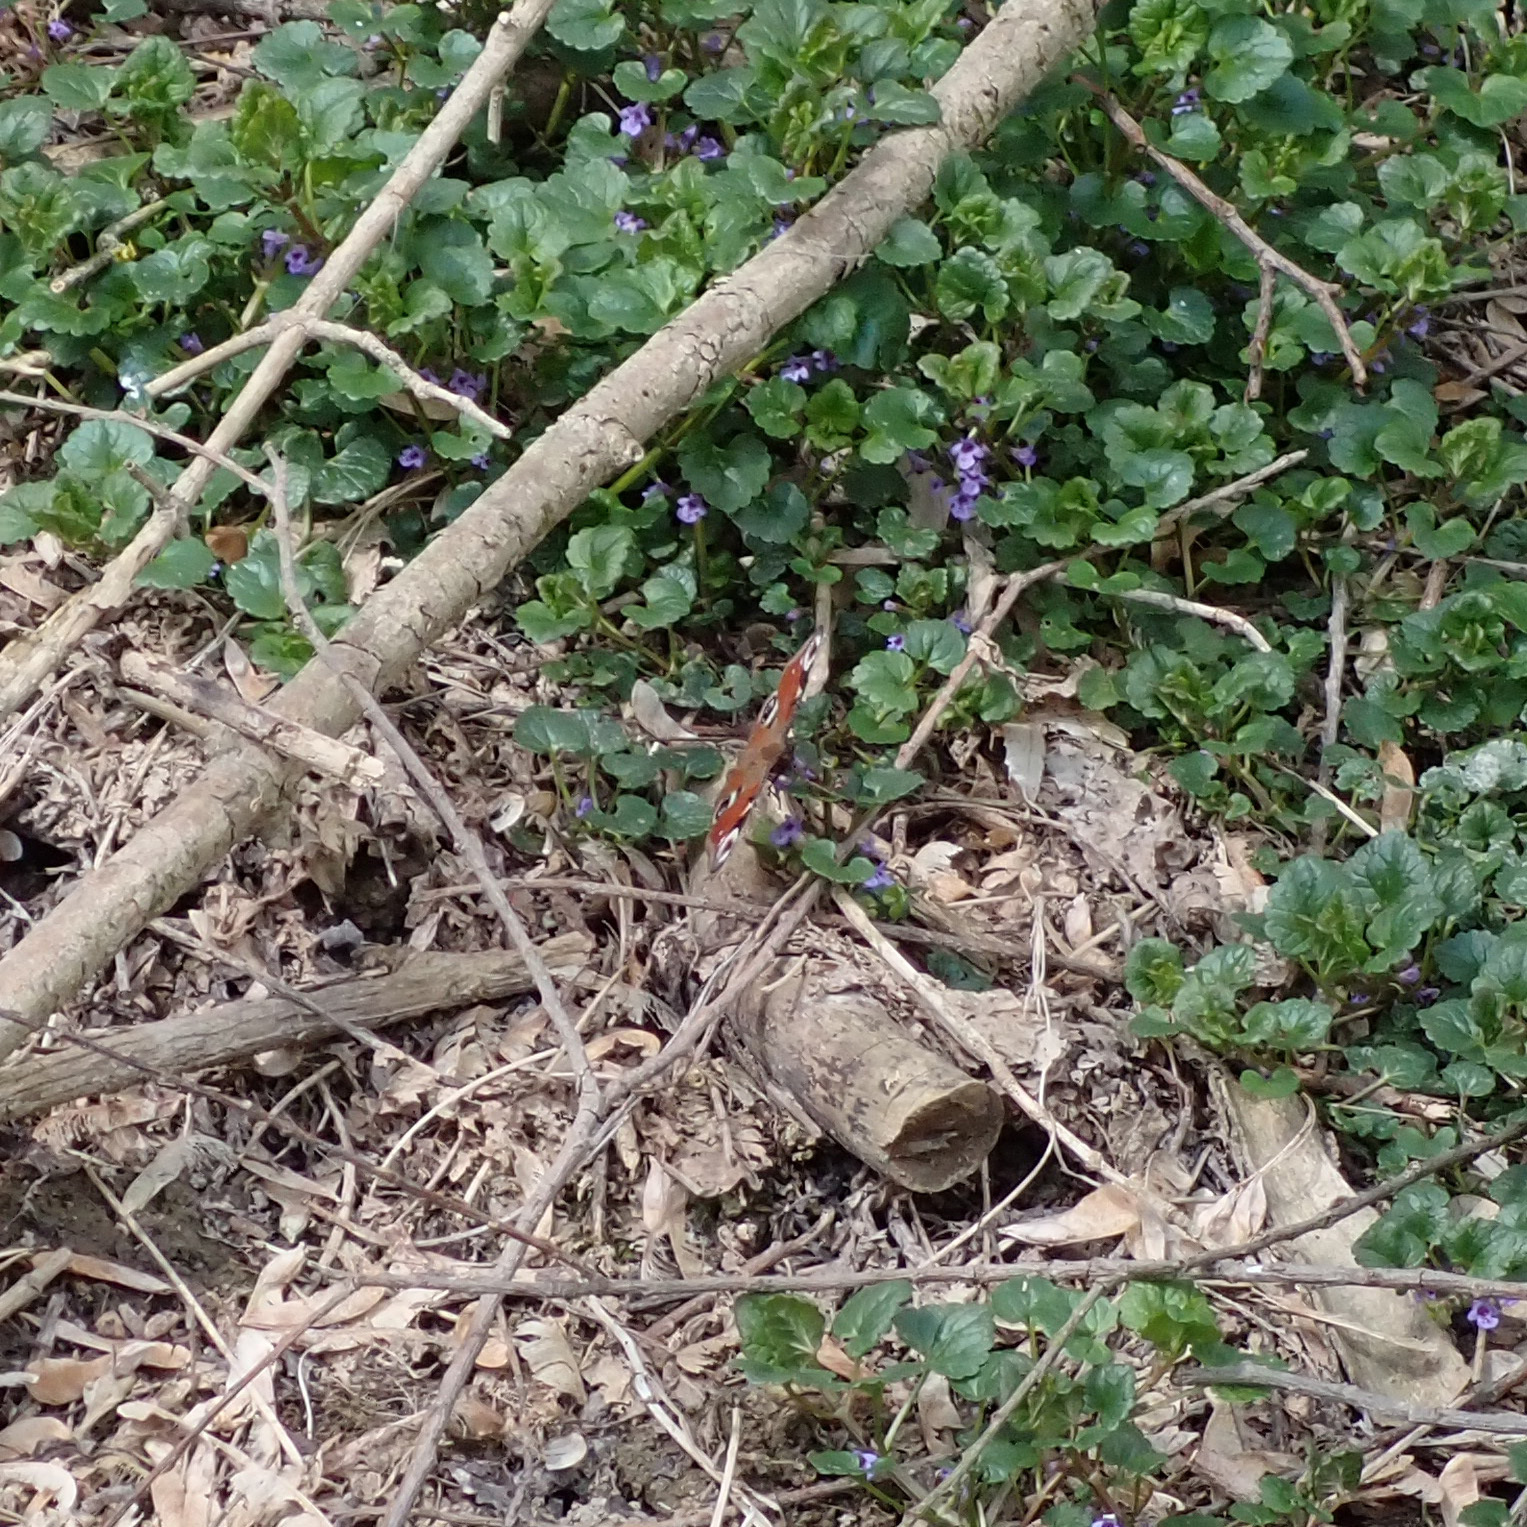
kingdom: Animalia
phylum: Arthropoda
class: Insecta
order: Lepidoptera
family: Nymphalidae
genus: Aglais
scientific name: Aglais io
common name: Peacock
